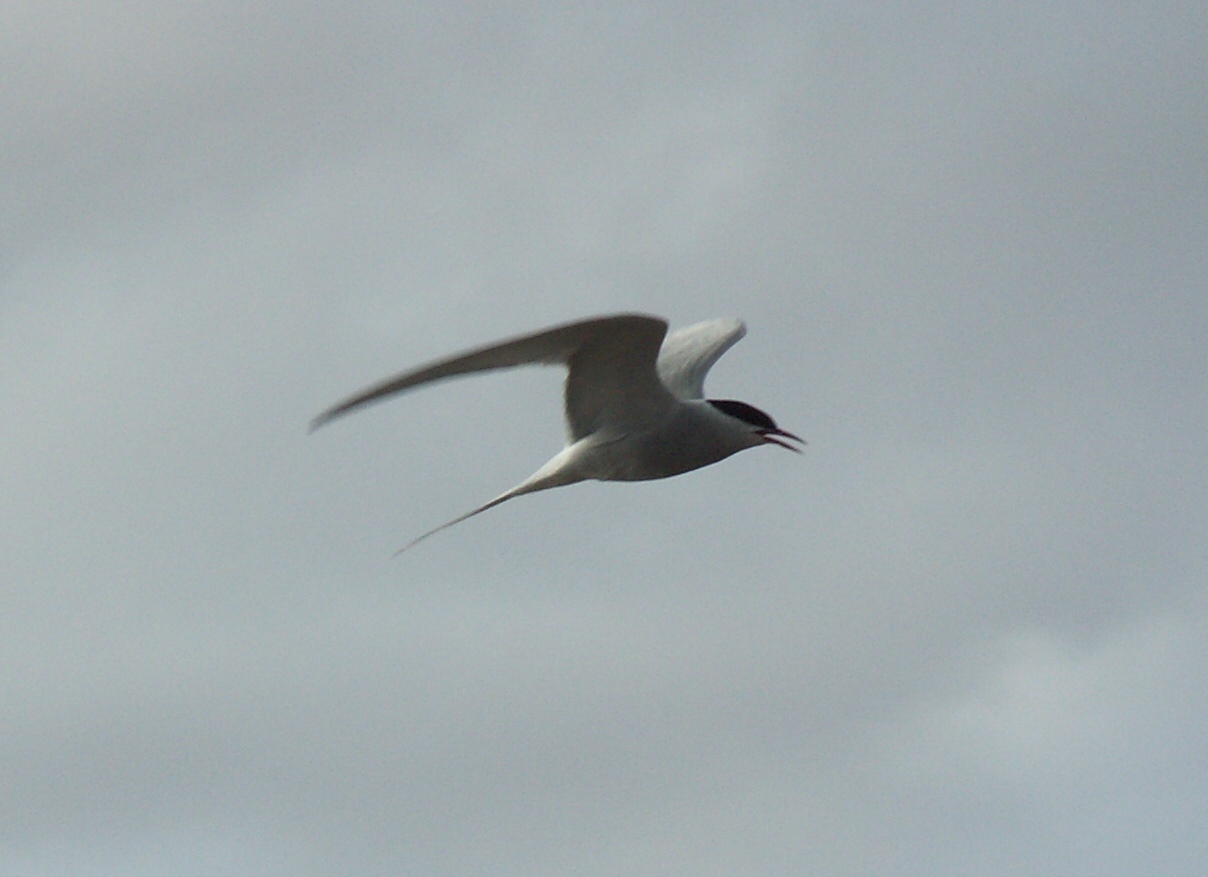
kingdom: Animalia
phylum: Chordata
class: Aves
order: Charadriiformes
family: Laridae
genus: Sterna
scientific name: Sterna paradisaea
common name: Arctic tern
